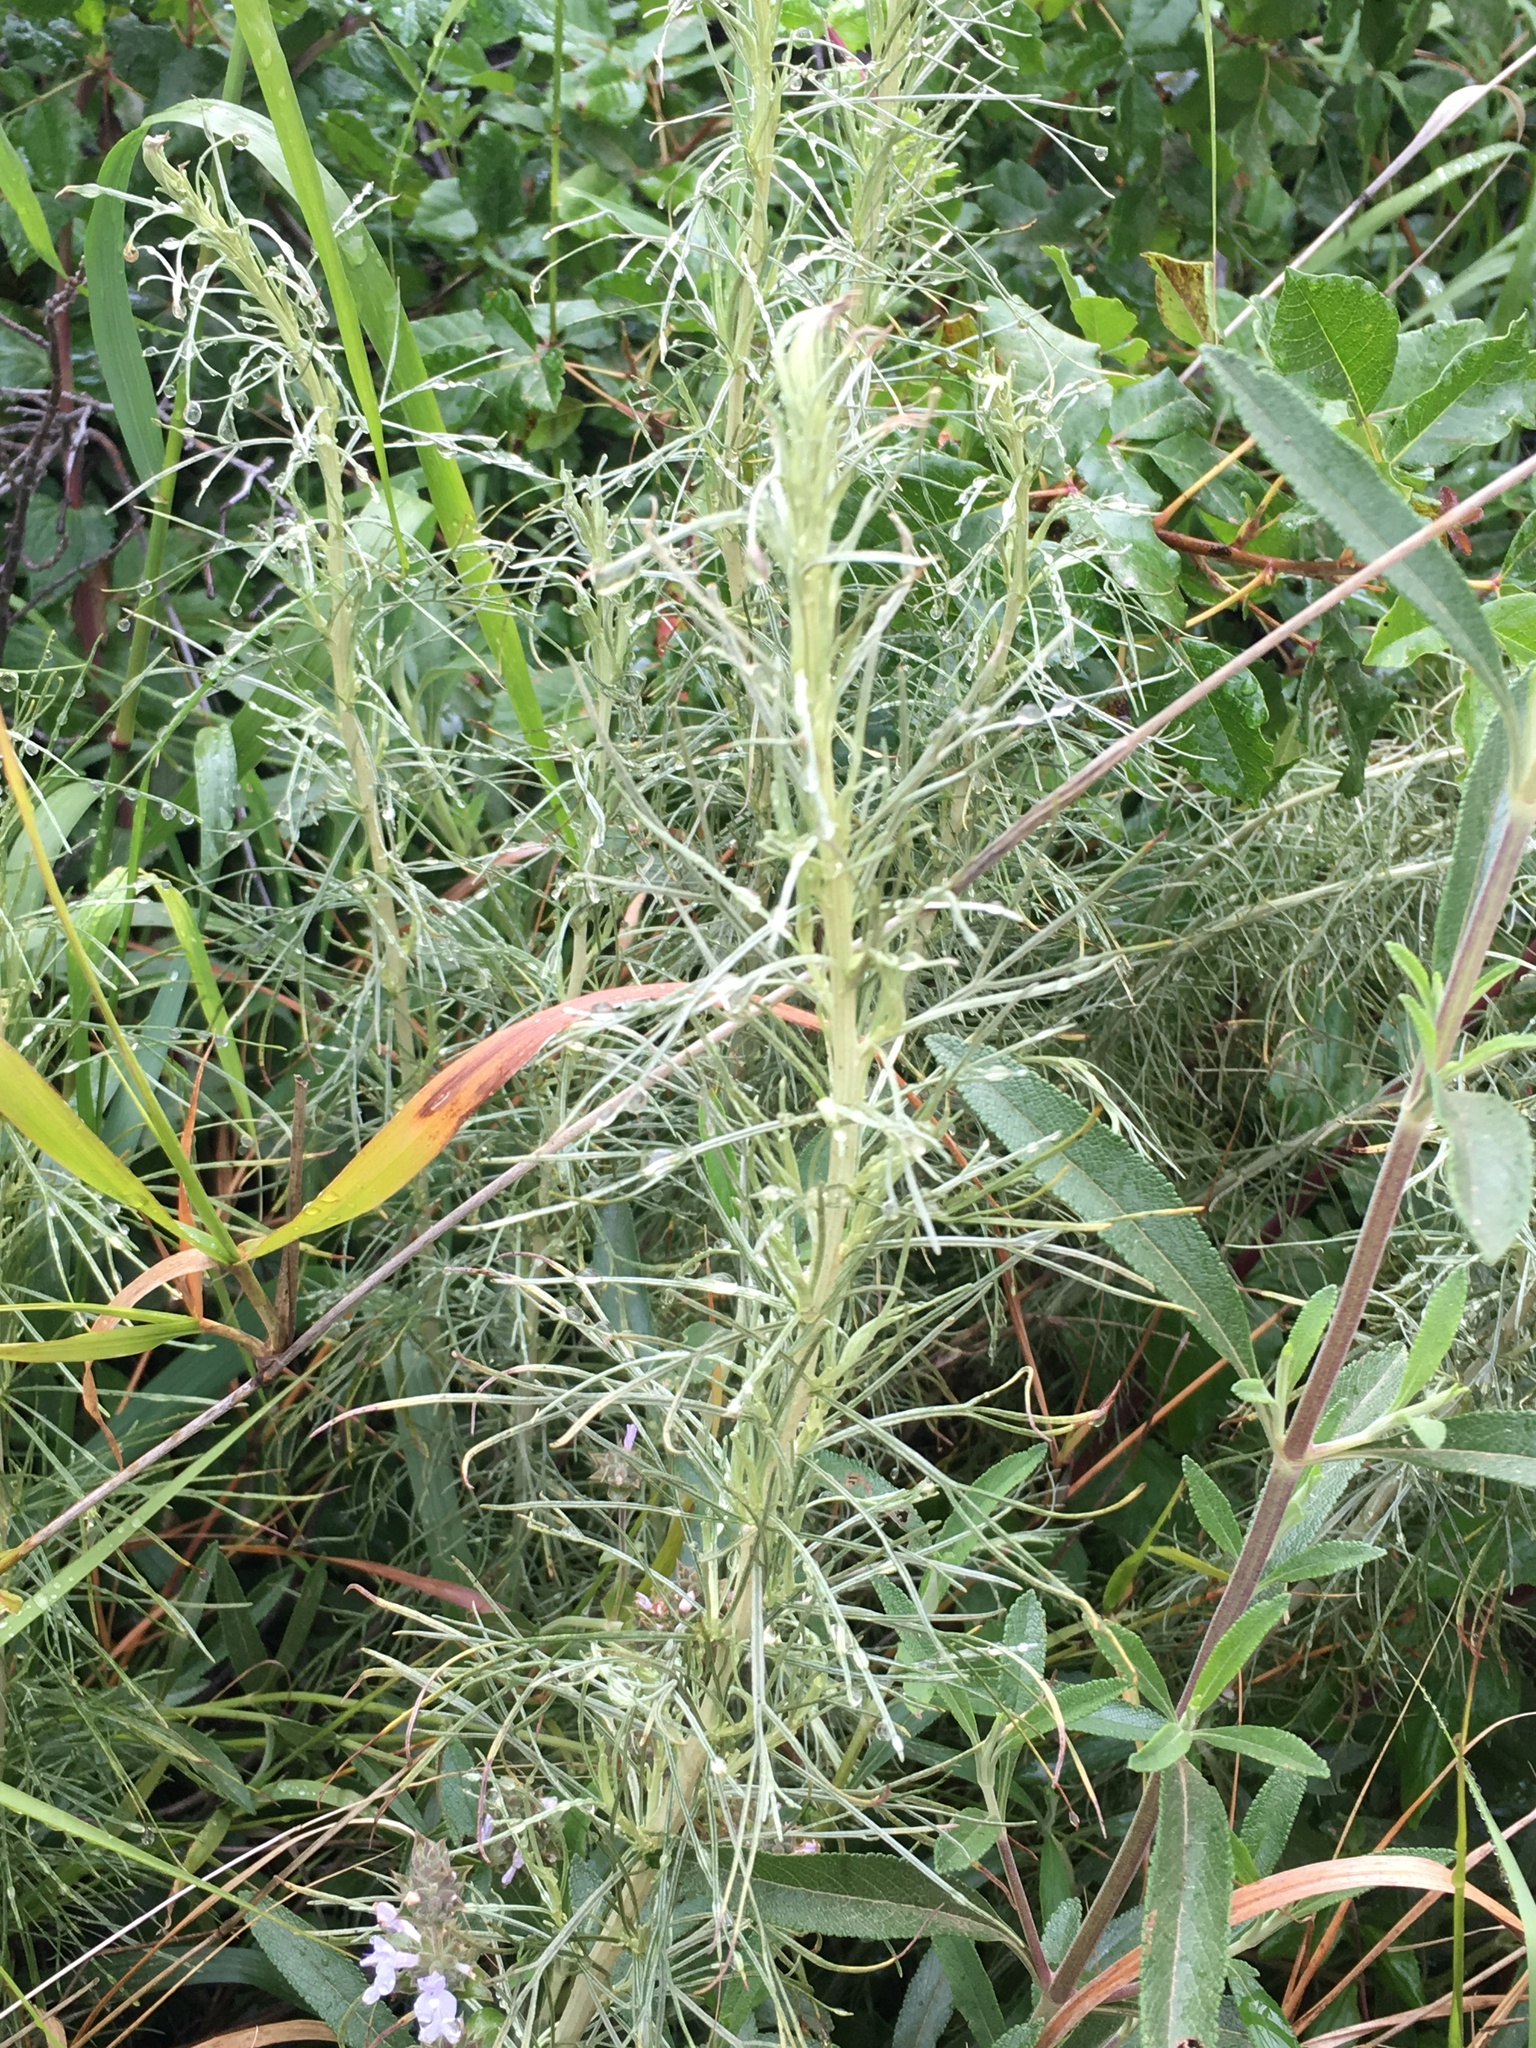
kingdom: Plantae
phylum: Tracheophyta
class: Magnoliopsida
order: Asterales
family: Asteraceae
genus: Artemisia
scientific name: Artemisia californica
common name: California sagebrush
